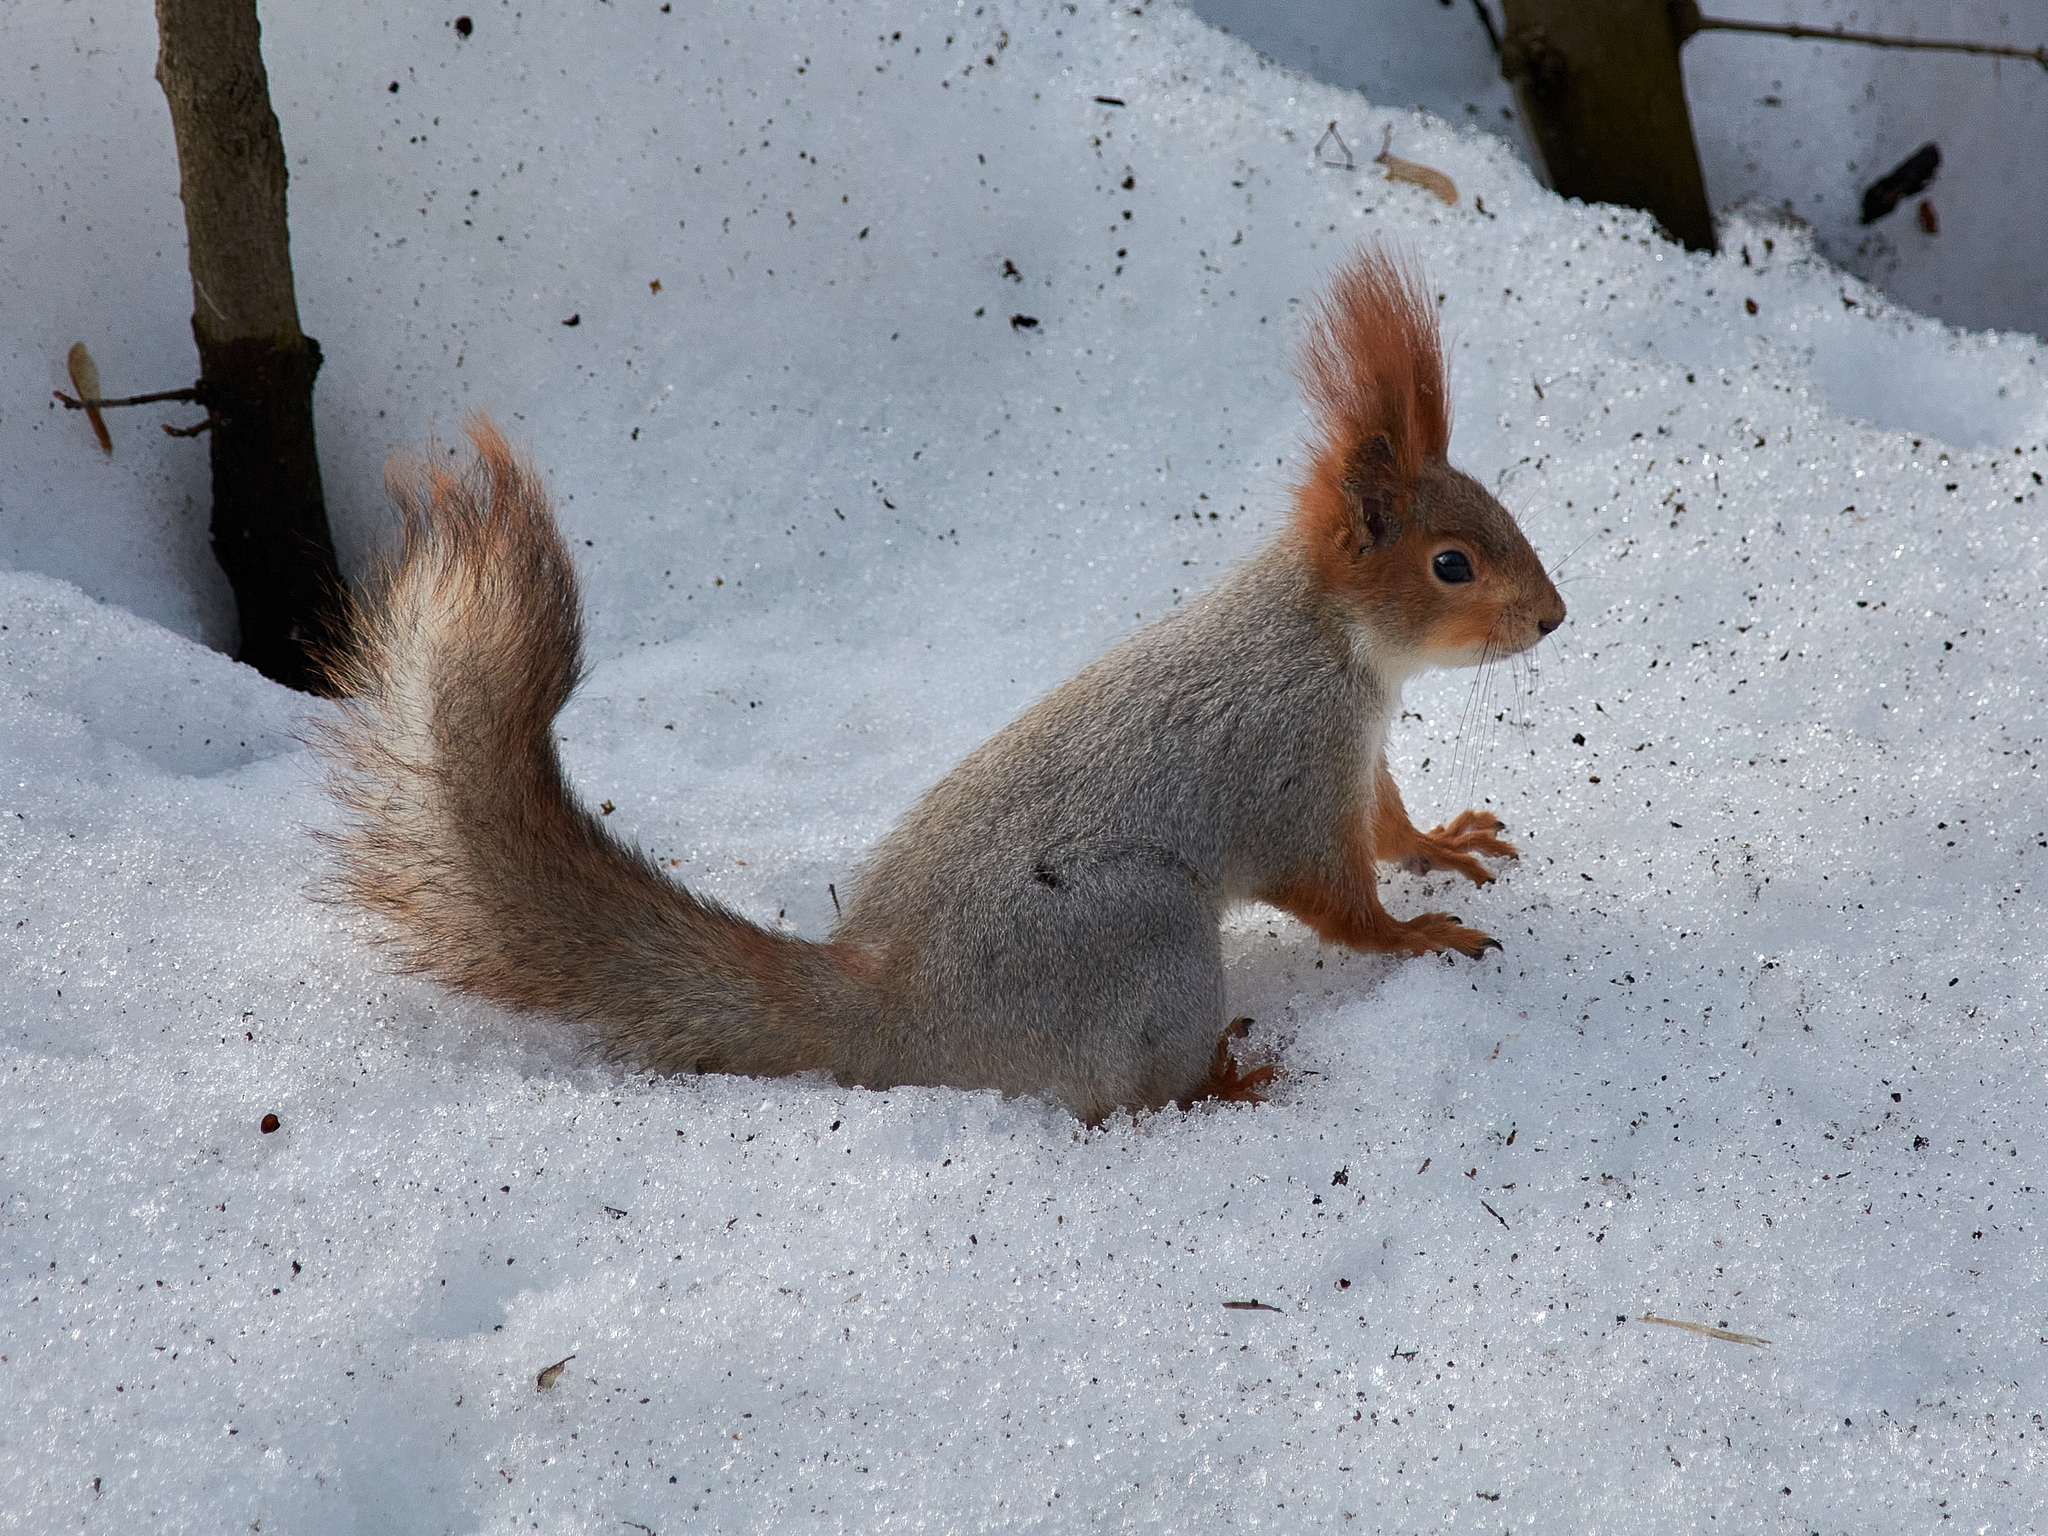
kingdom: Animalia
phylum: Chordata
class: Mammalia
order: Rodentia
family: Sciuridae
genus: Sciurus
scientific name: Sciurus vulgaris
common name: Eurasian red squirrel
